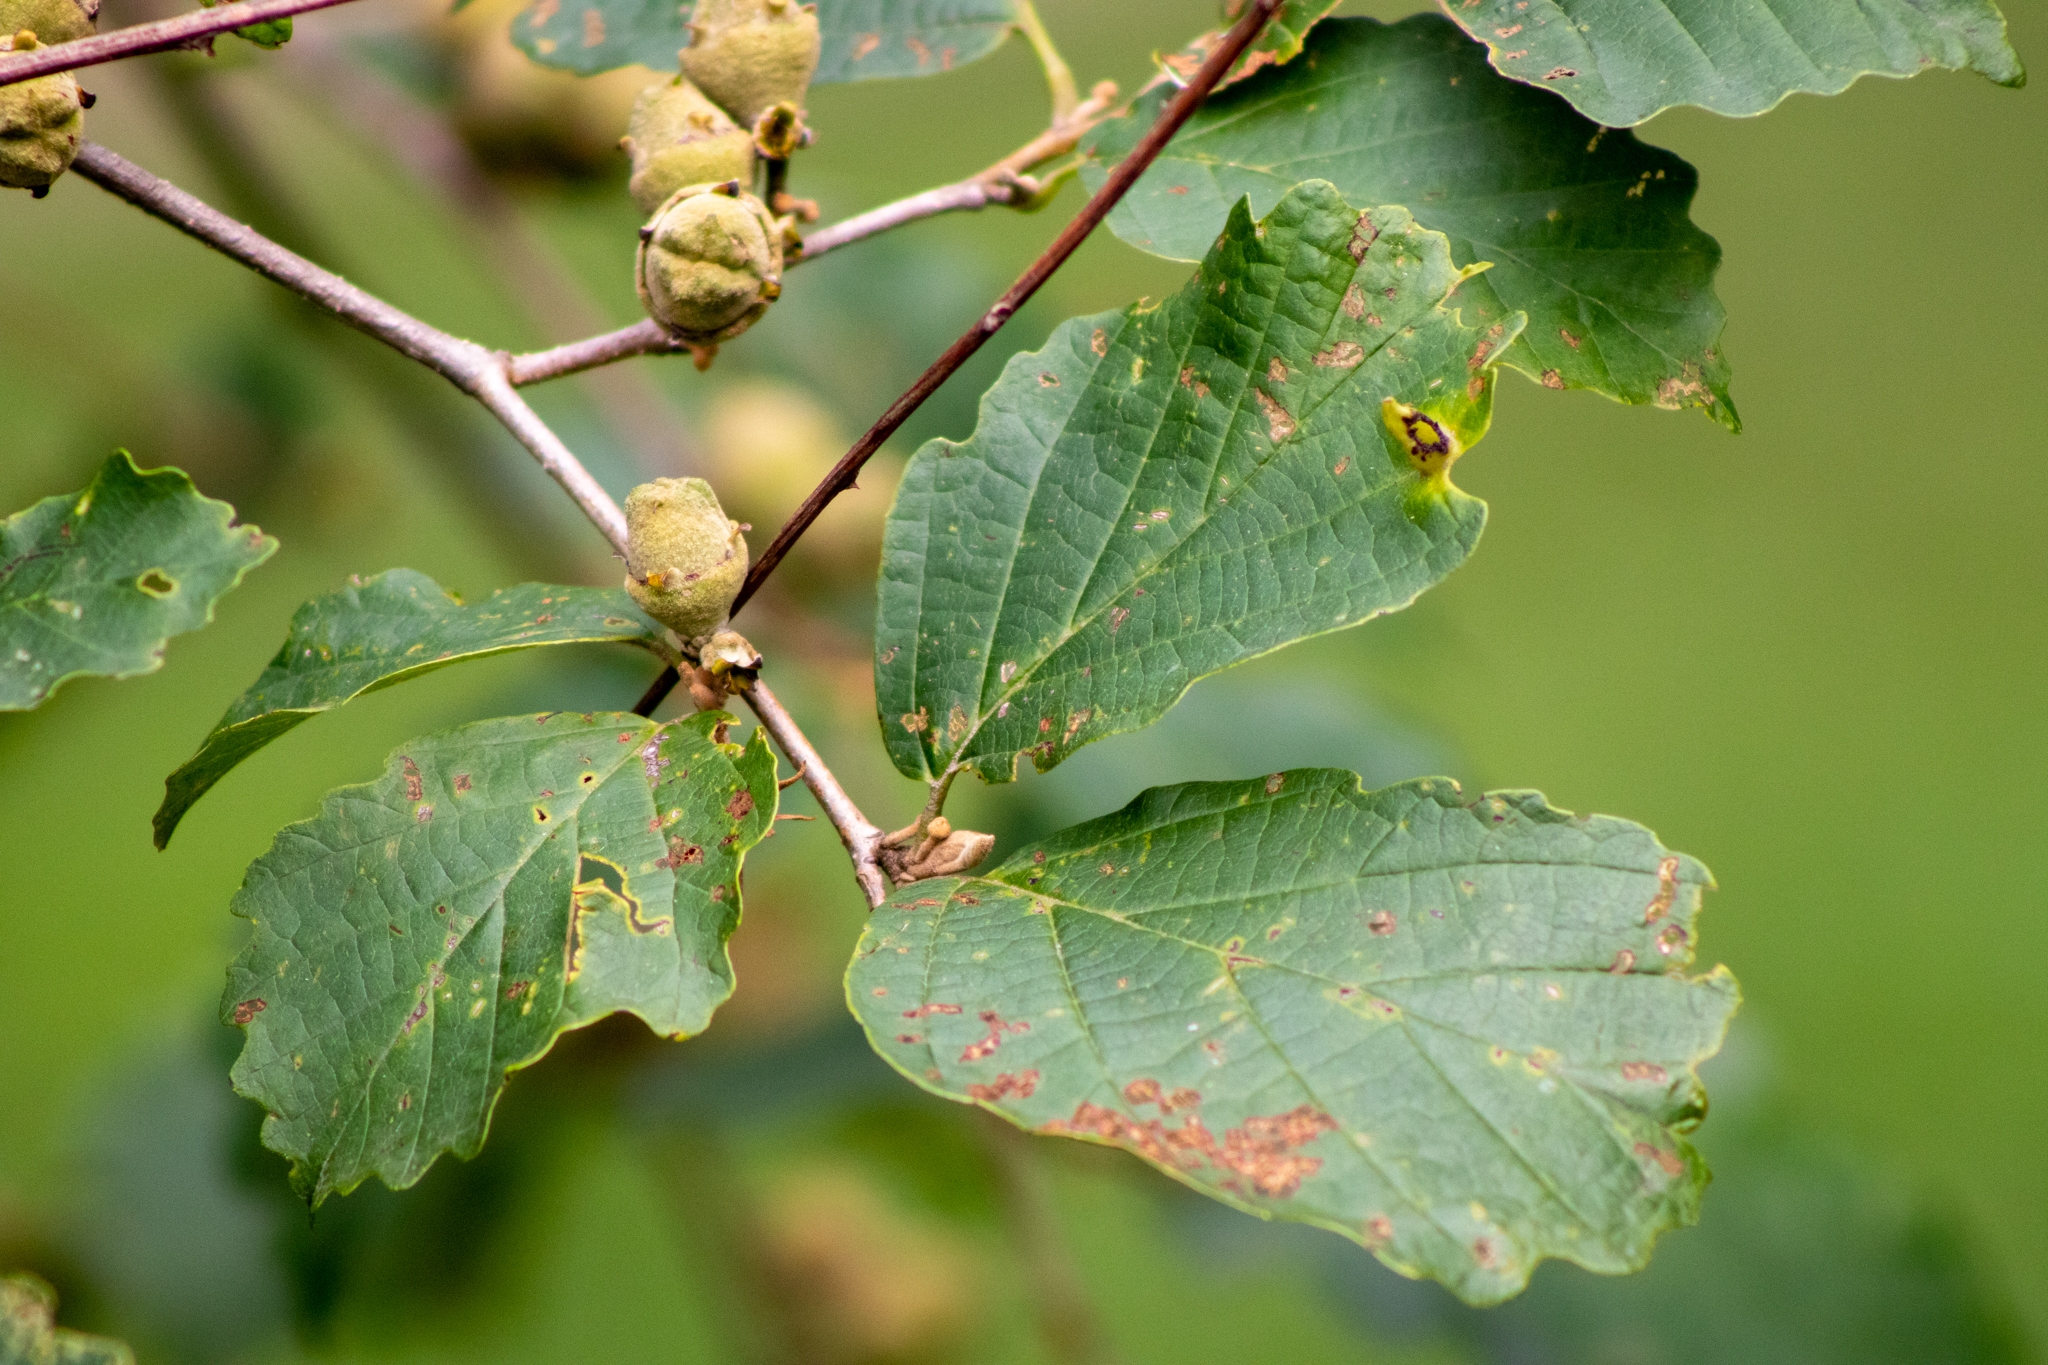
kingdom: Plantae
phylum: Tracheophyta
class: Magnoliopsida
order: Saxifragales
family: Hamamelidaceae
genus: Hamamelis
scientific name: Hamamelis virginiana
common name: Witch-hazel
